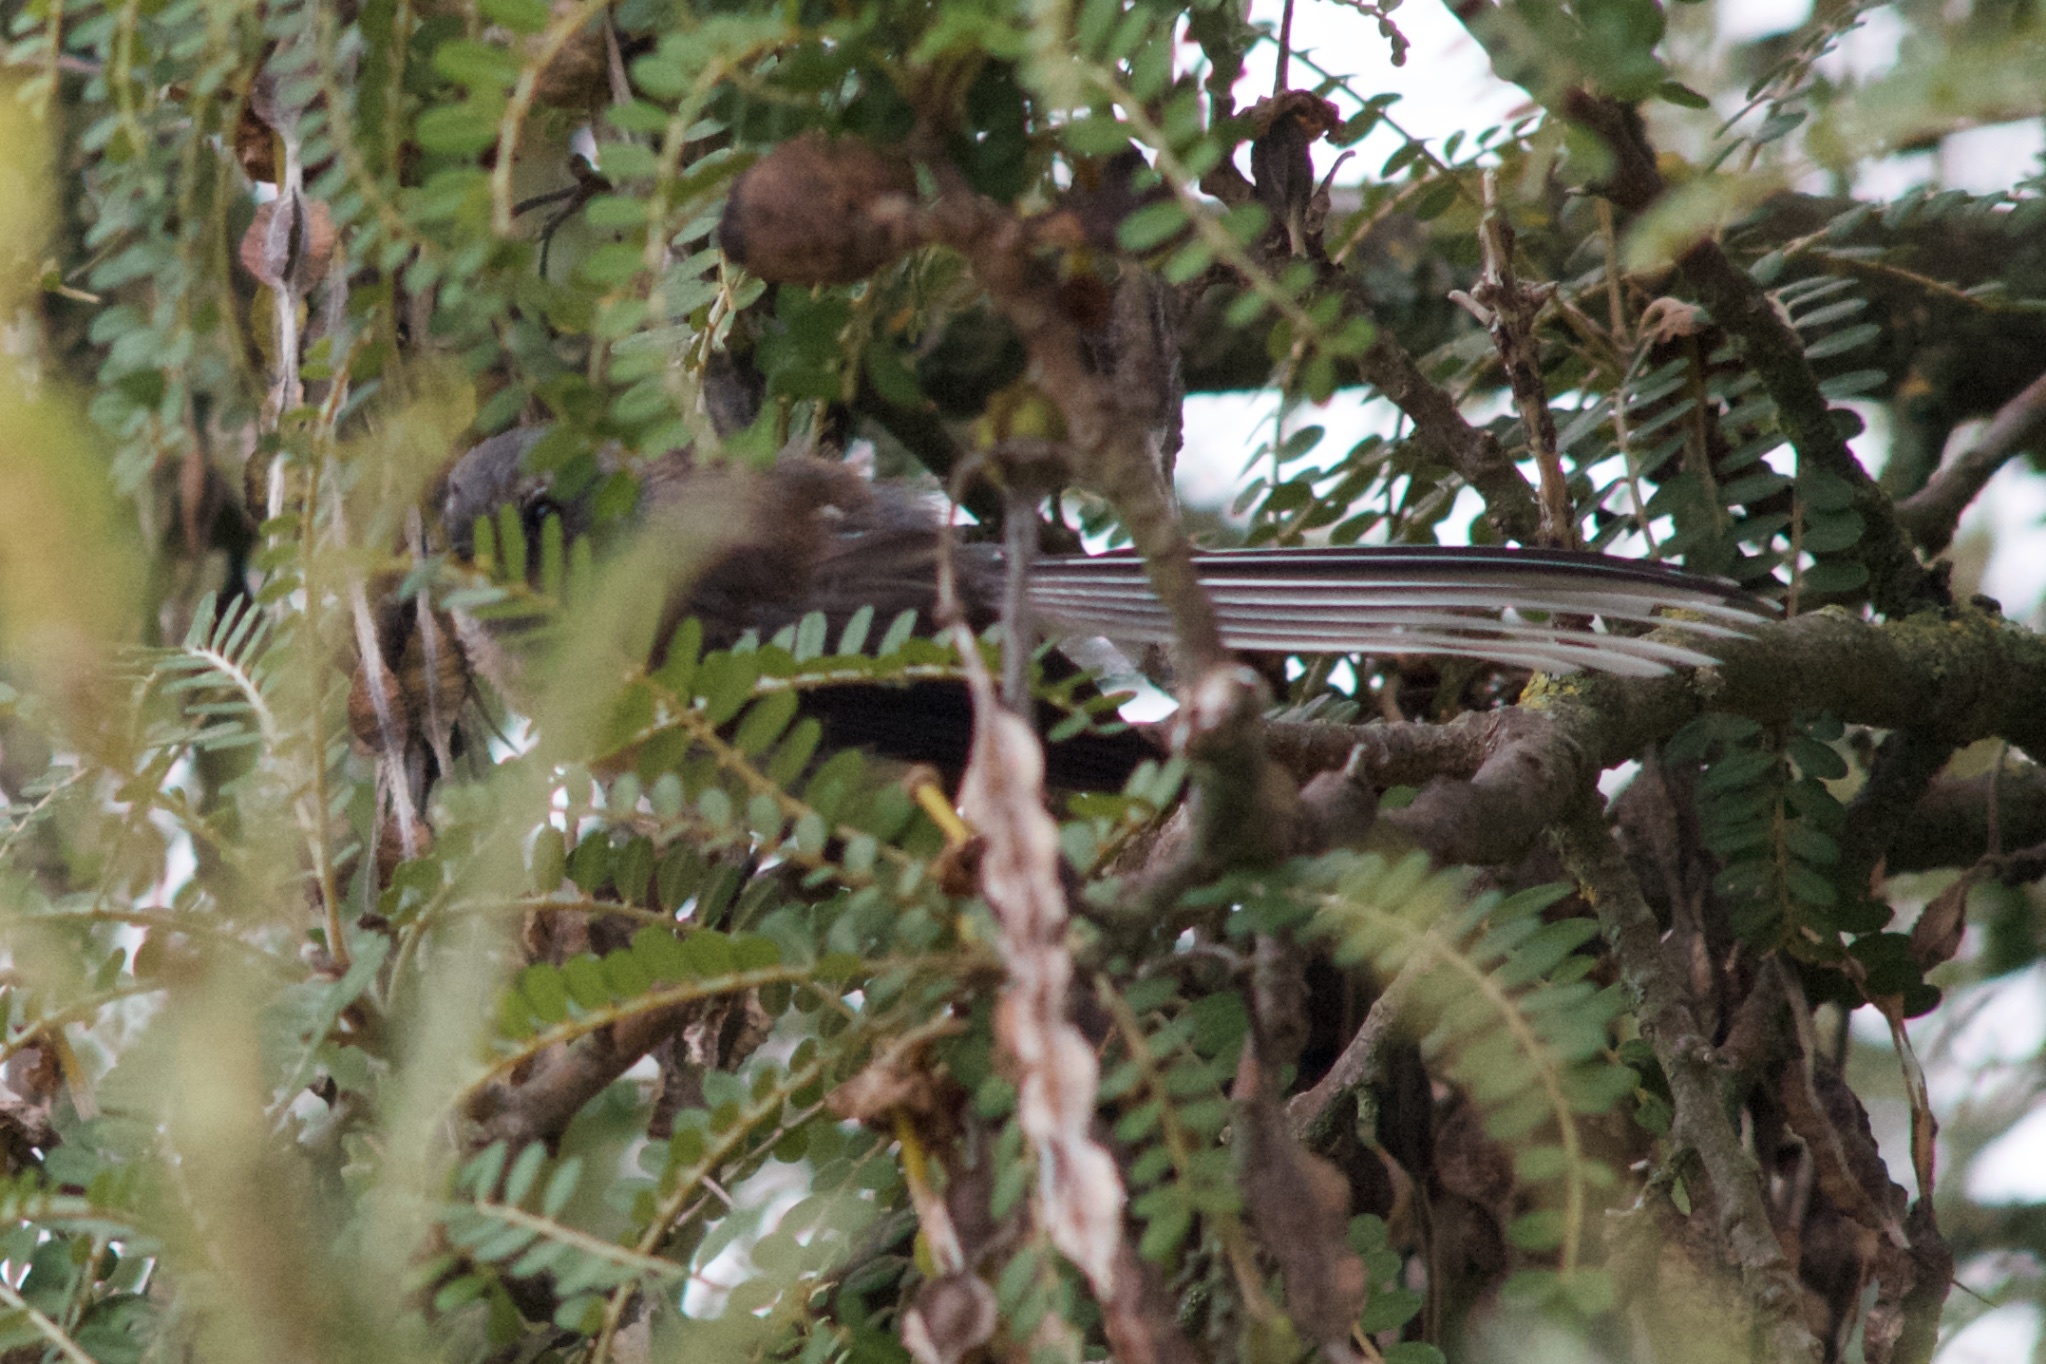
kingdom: Animalia
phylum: Chordata
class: Aves
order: Passeriformes
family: Rhipiduridae
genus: Rhipidura
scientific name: Rhipidura fuliginosa
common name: New zealand fantail
